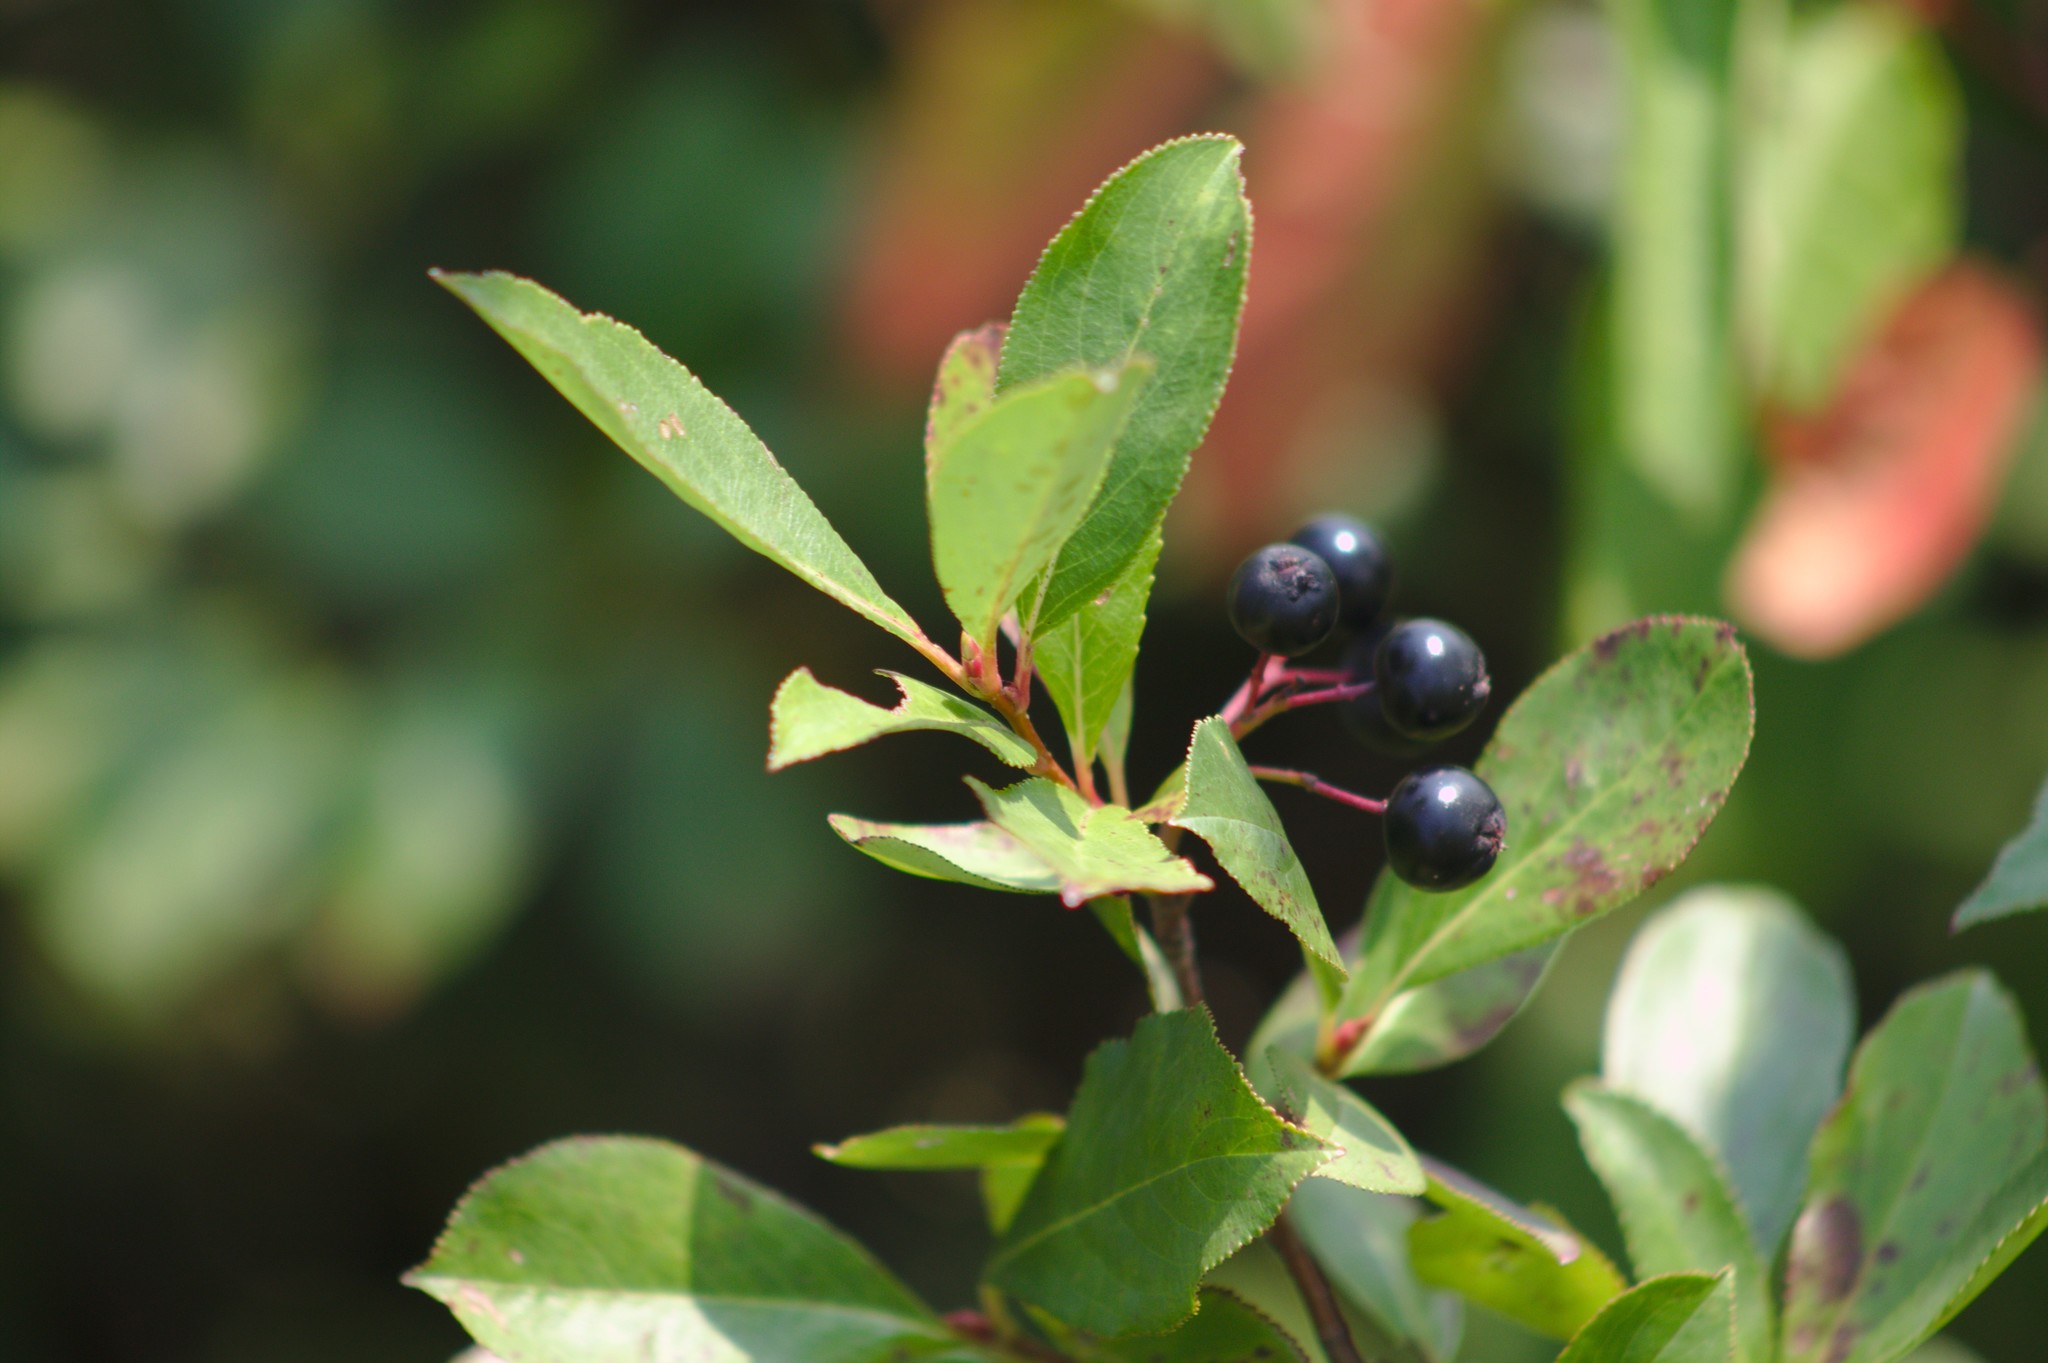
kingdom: Plantae
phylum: Tracheophyta
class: Magnoliopsida
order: Rosales
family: Rosaceae
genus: Aronia
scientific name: Aronia melanocarpa
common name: Black chokeberry
